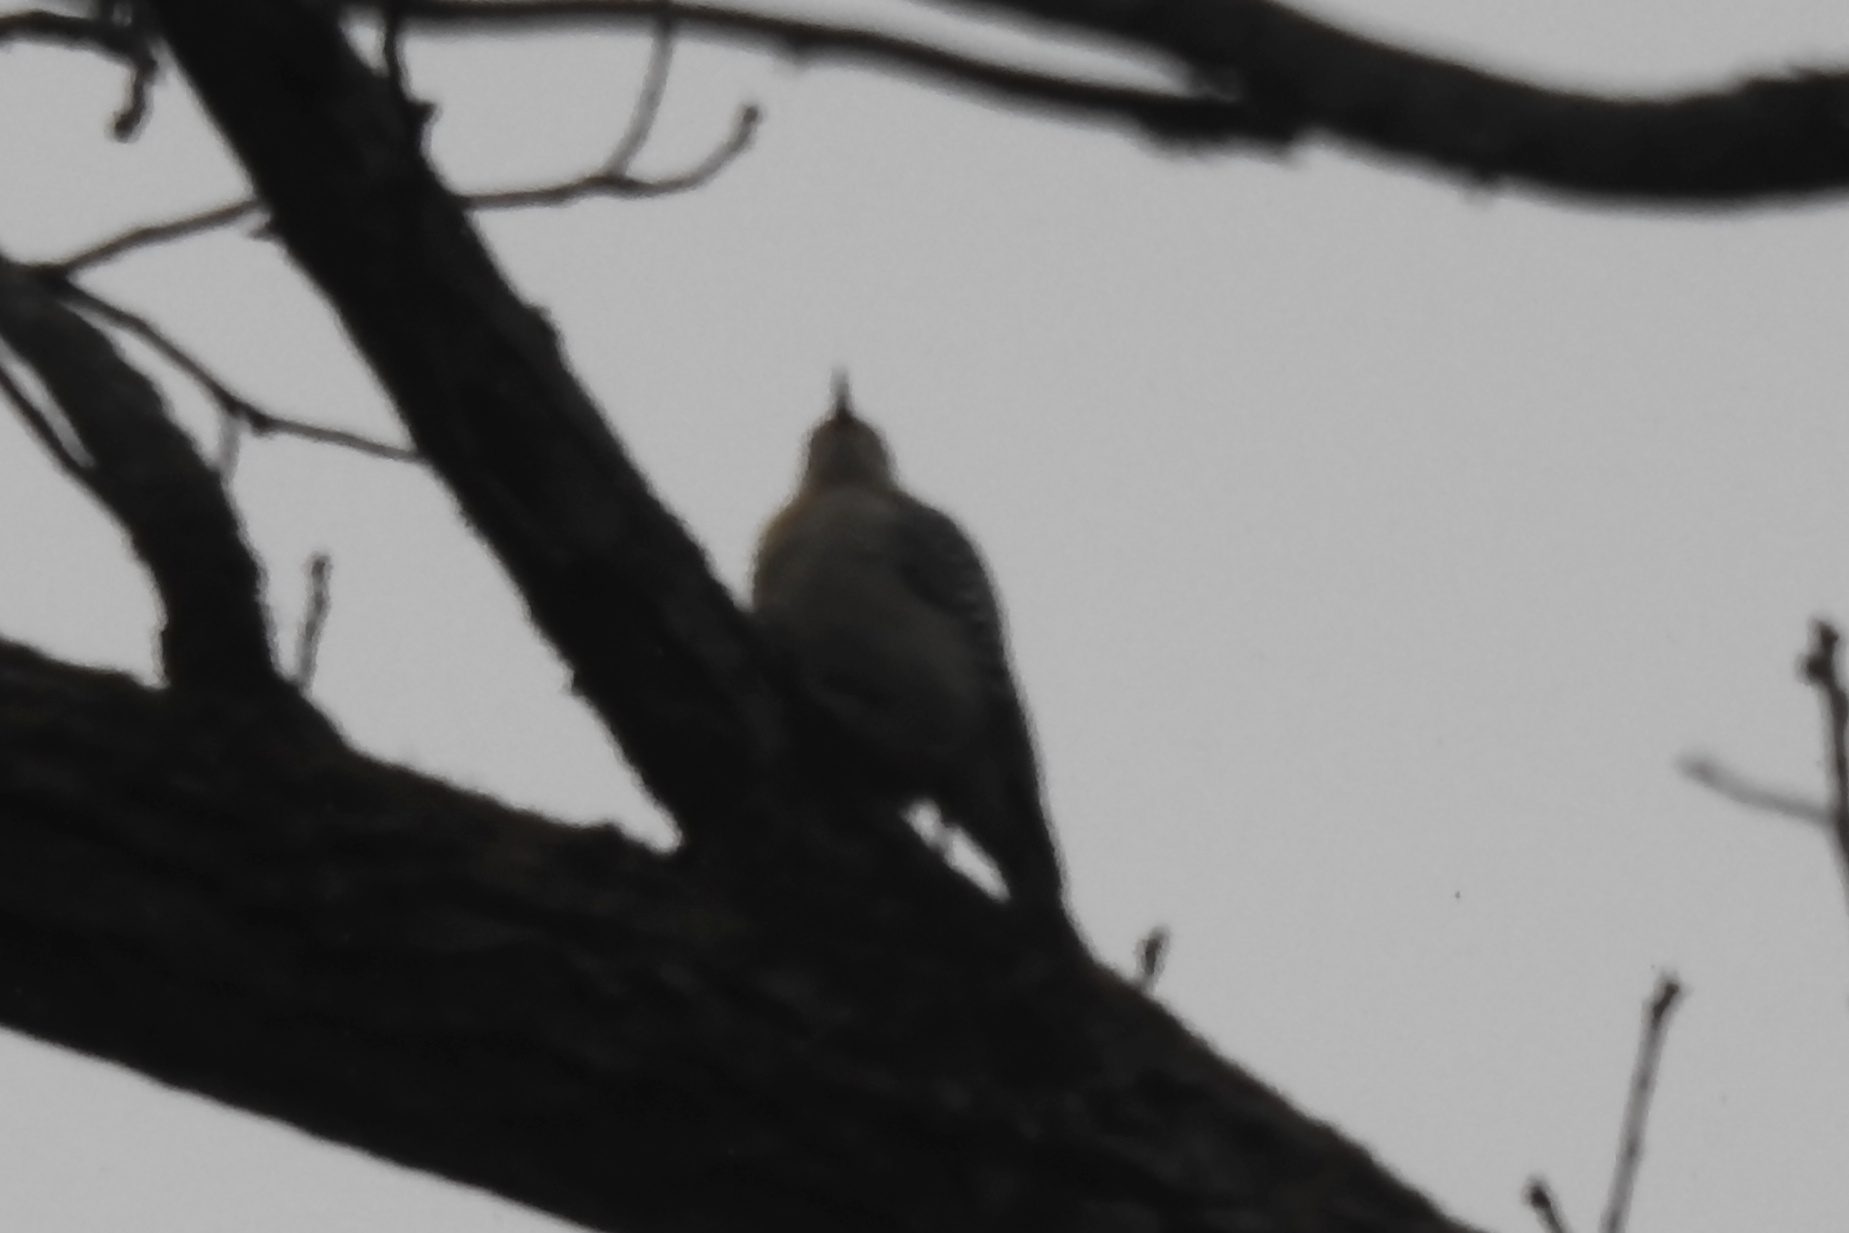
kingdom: Animalia
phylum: Chordata
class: Aves
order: Piciformes
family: Picidae
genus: Melanerpes
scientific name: Melanerpes carolinus
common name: Red-bellied woodpecker
